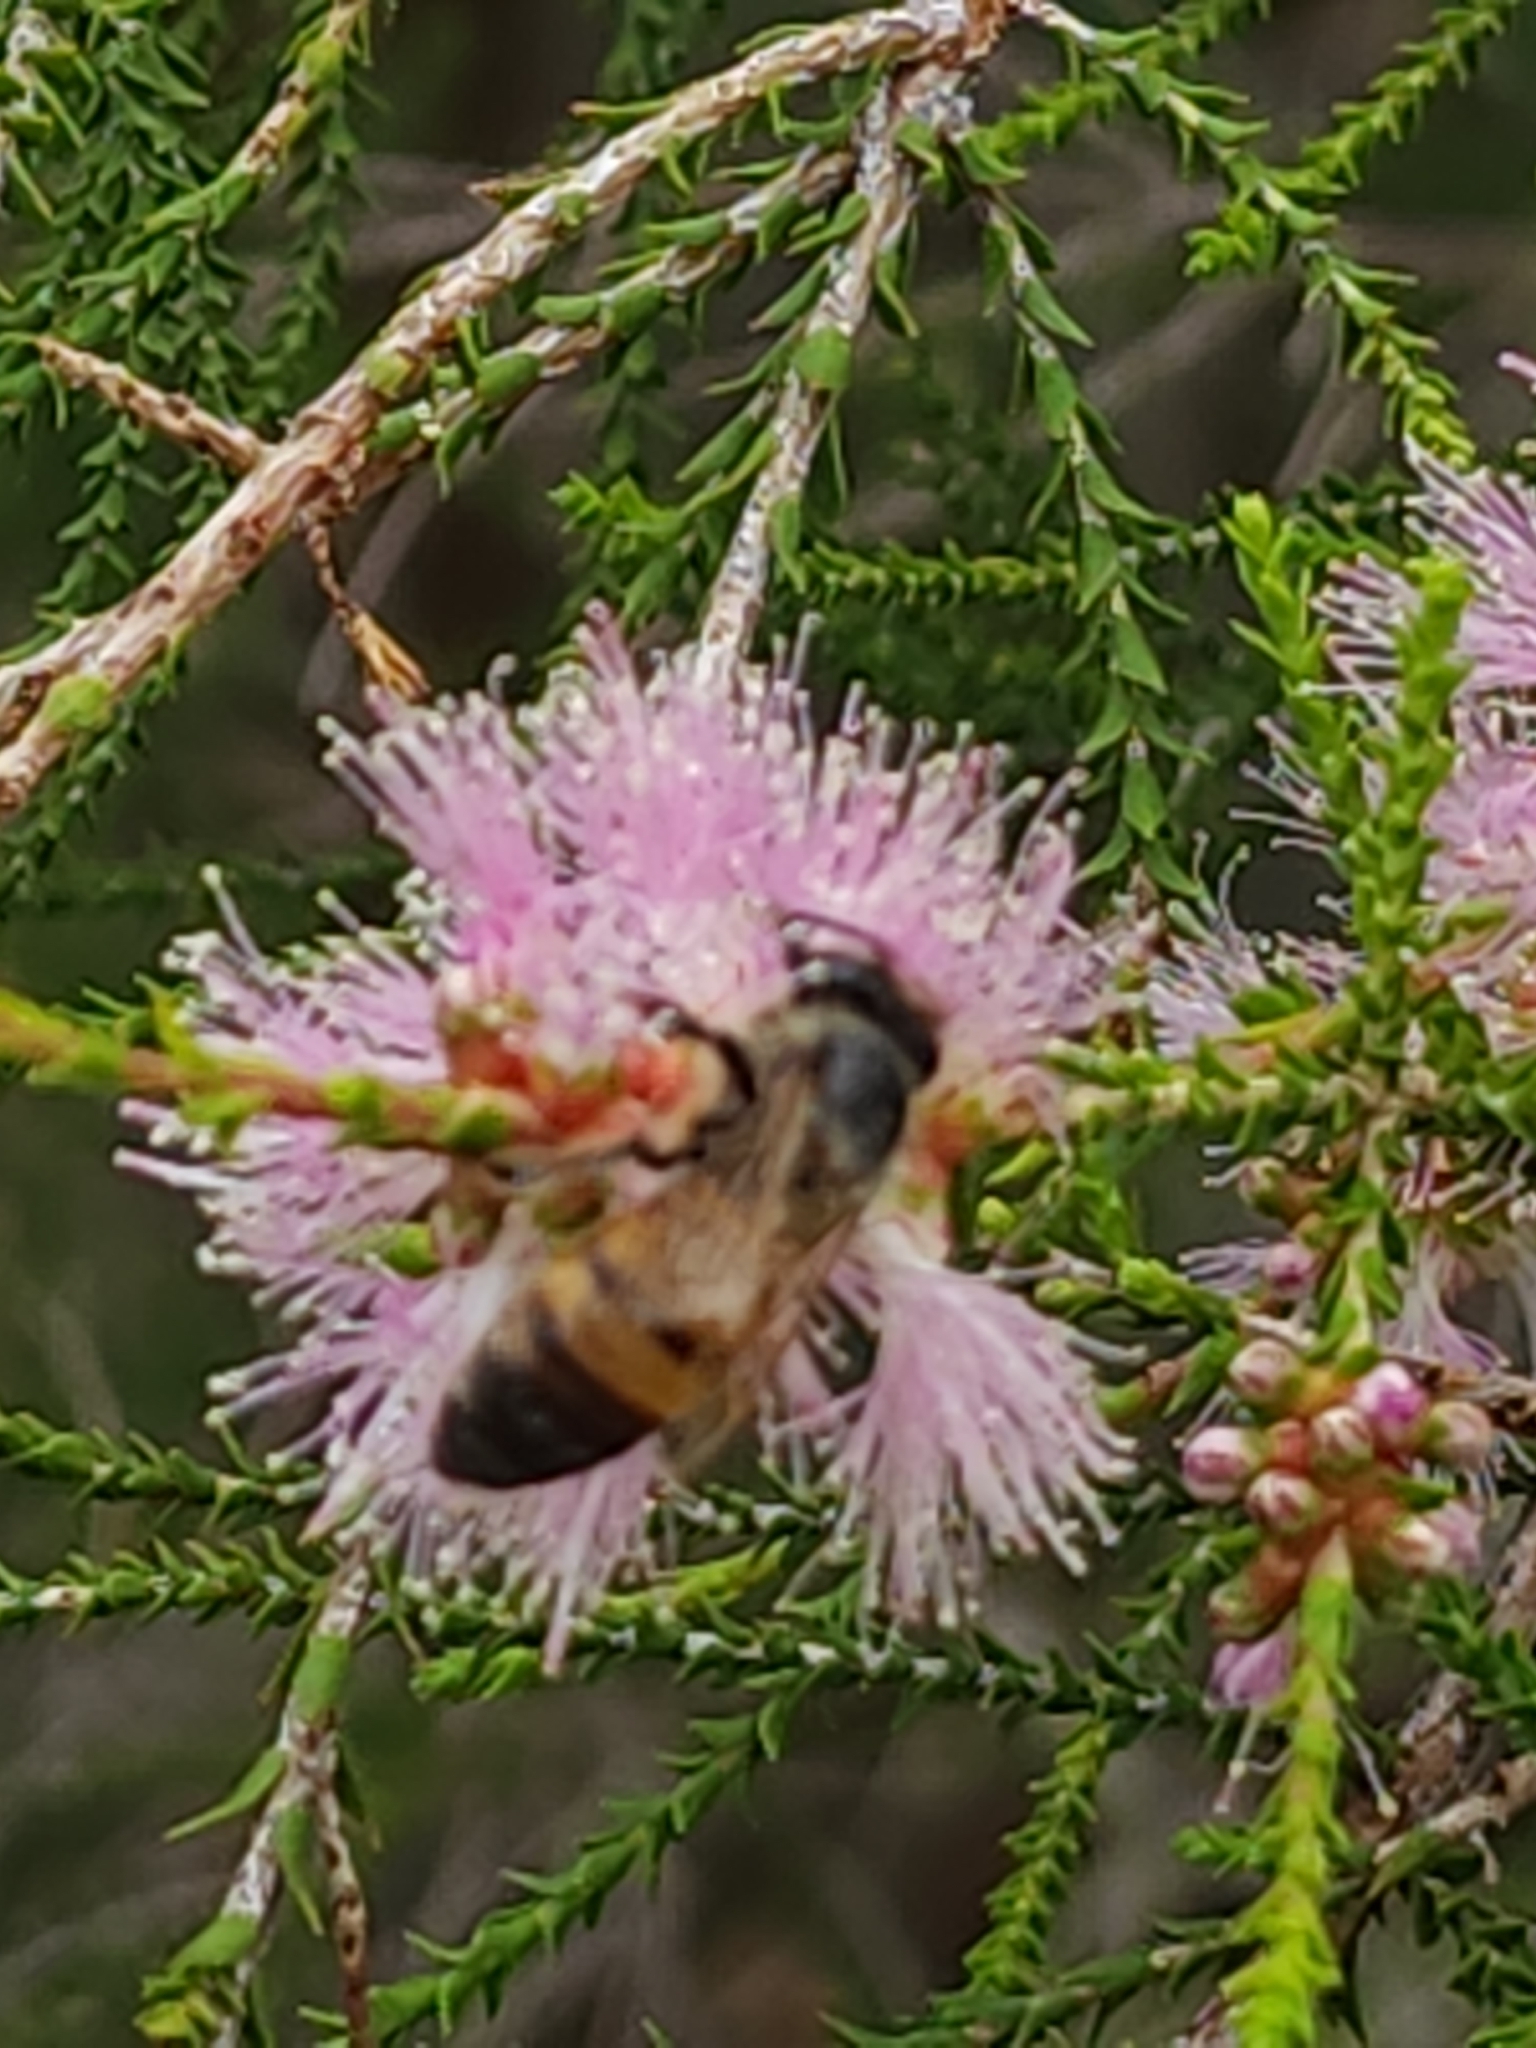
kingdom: Animalia
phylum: Arthropoda
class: Insecta
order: Hymenoptera
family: Apidae
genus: Apis
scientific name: Apis mellifera
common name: Honey bee
